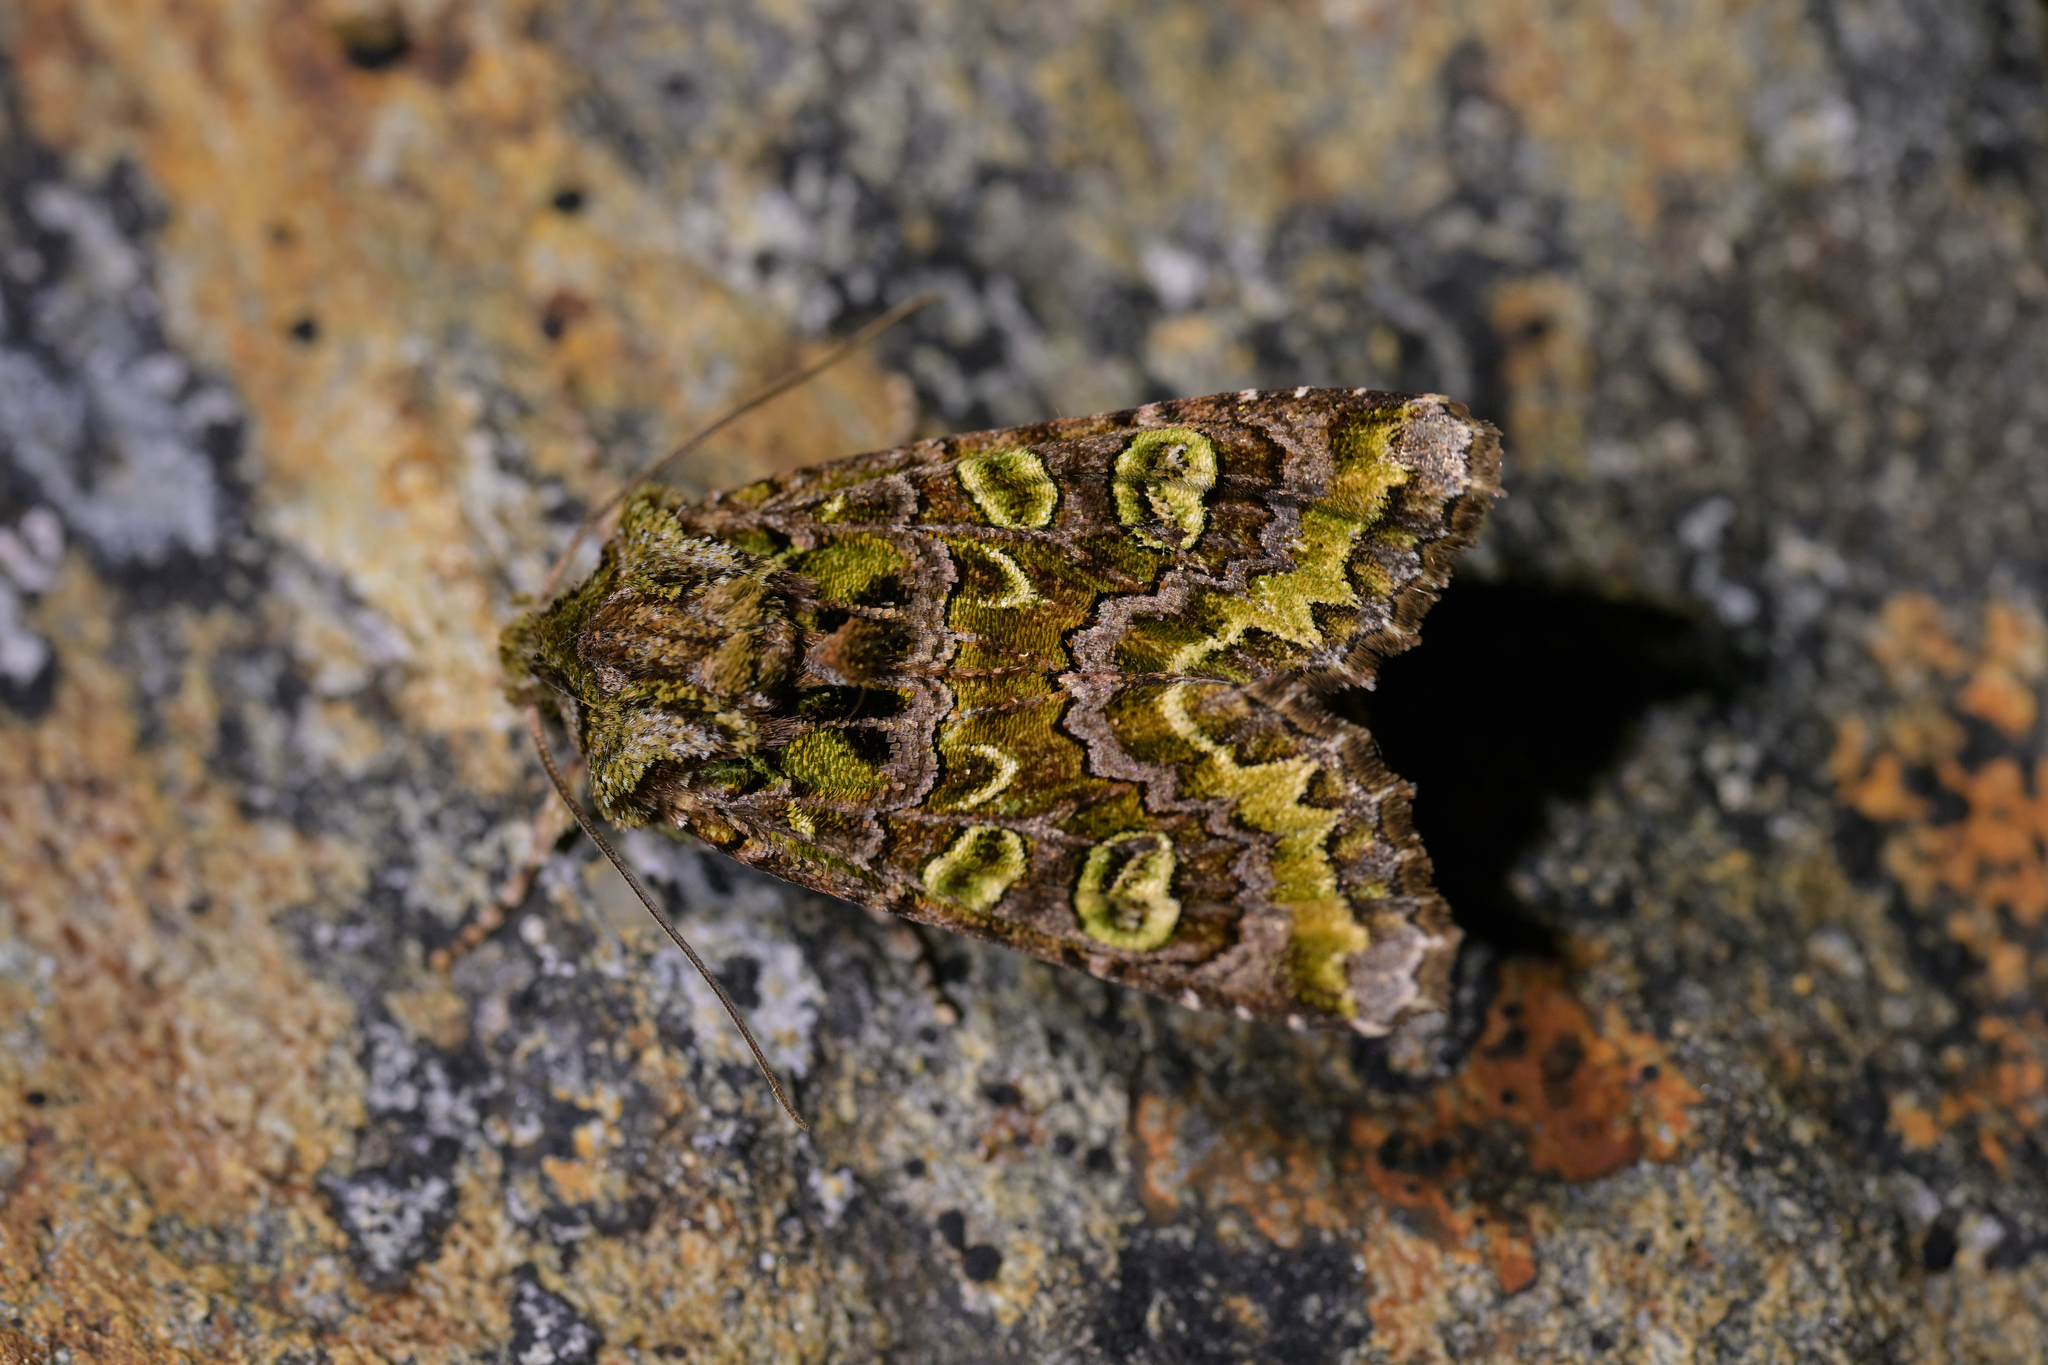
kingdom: Animalia
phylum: Arthropoda
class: Insecta
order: Lepidoptera
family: Noctuidae
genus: Ichneutica
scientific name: Ichneutica chlorodonta
